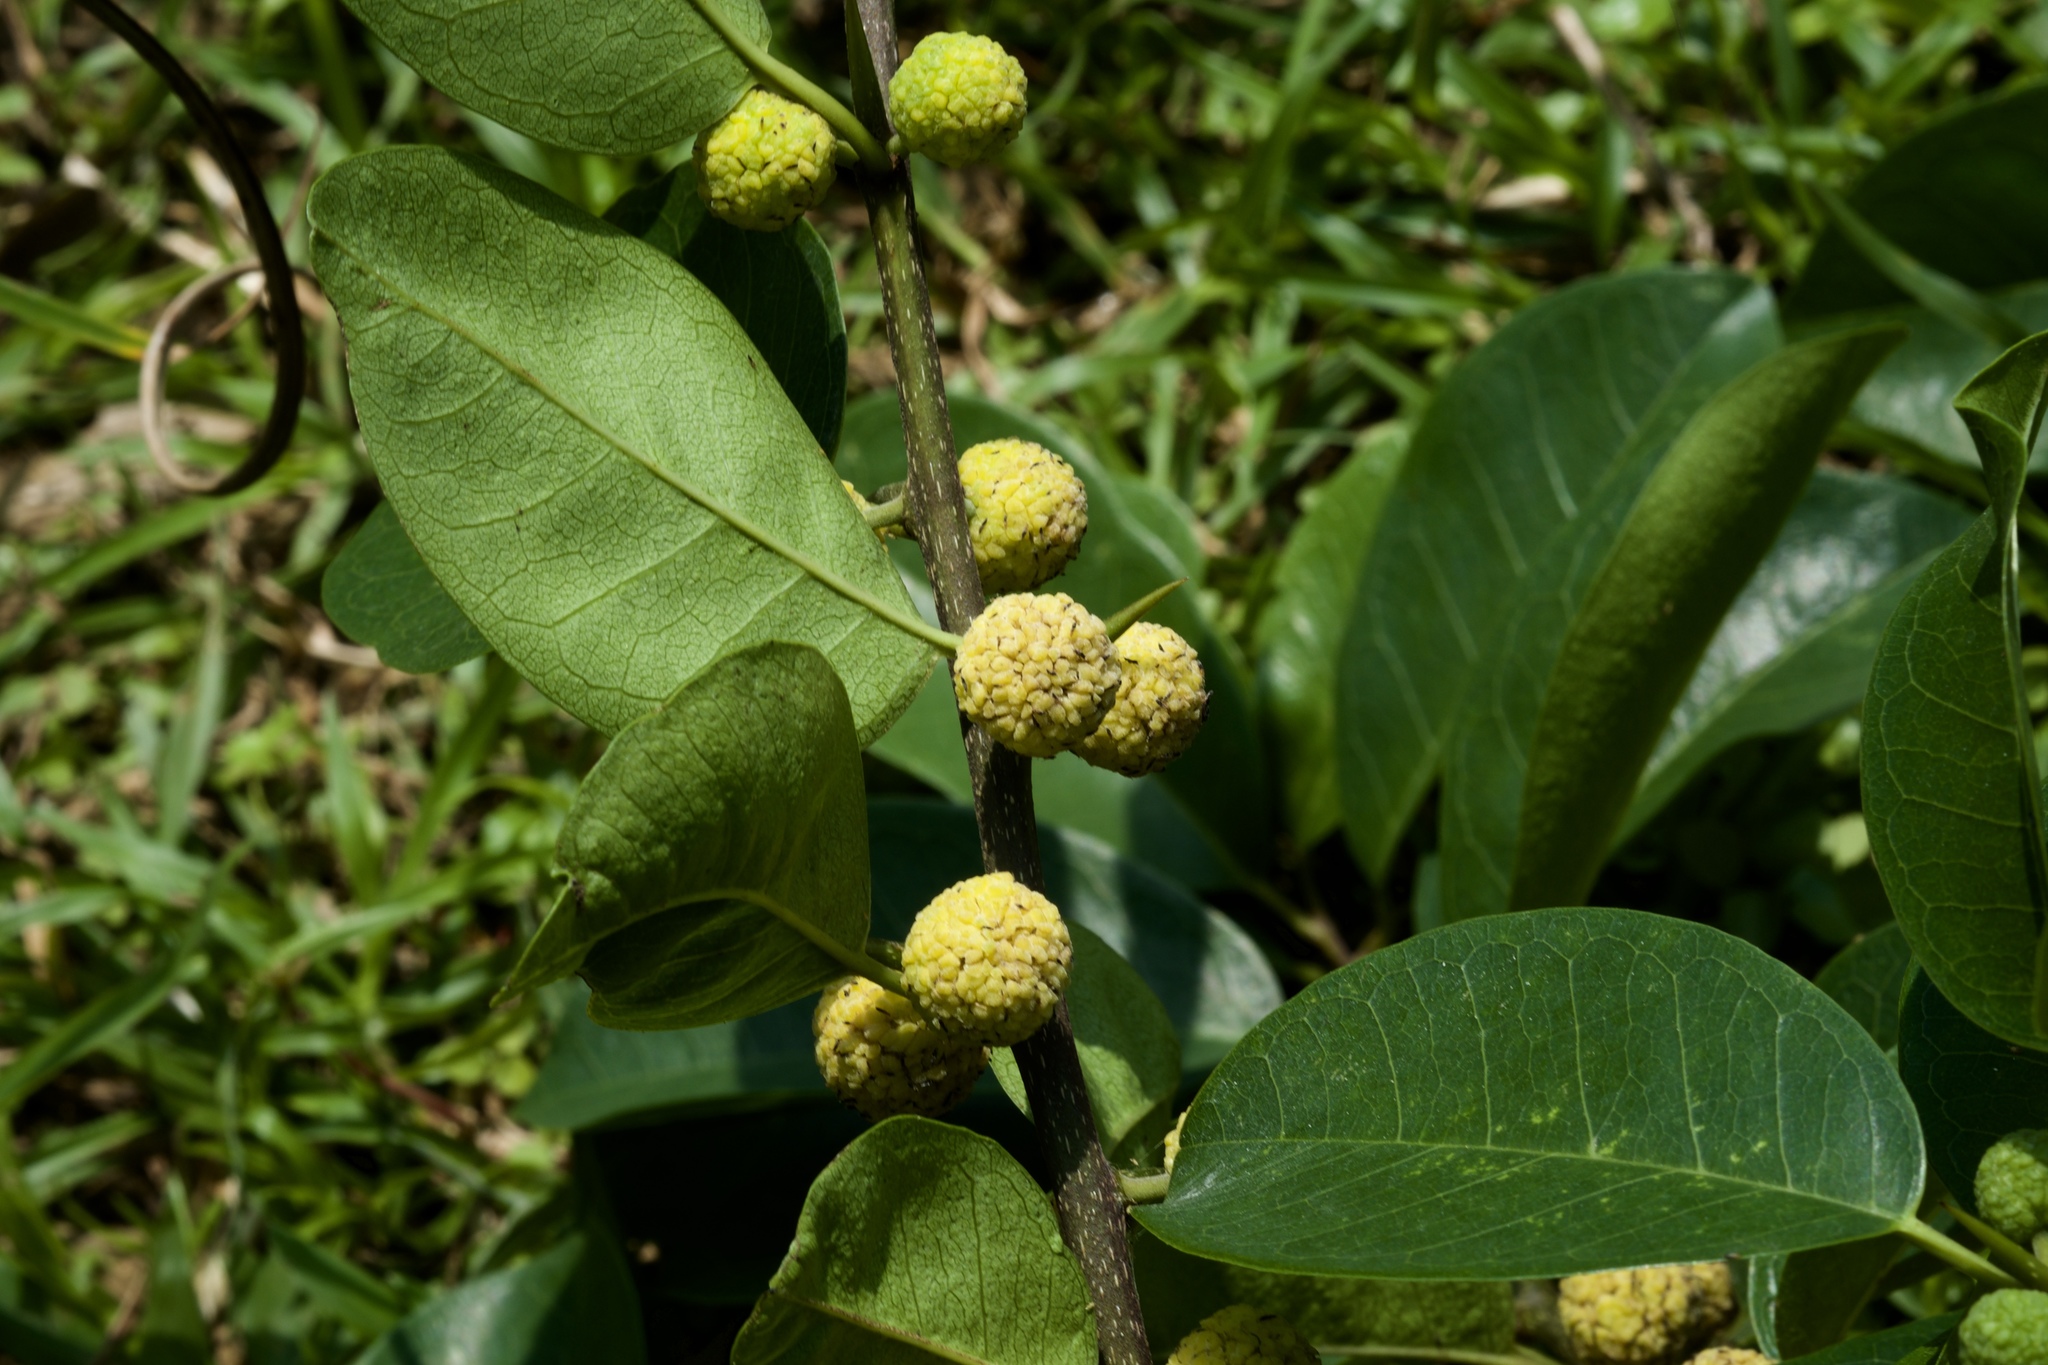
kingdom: Plantae
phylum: Tracheophyta
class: Magnoliopsida
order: Rosales
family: Moraceae
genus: Maclura
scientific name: Maclura cochinchinensis
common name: Cockspurthorn
